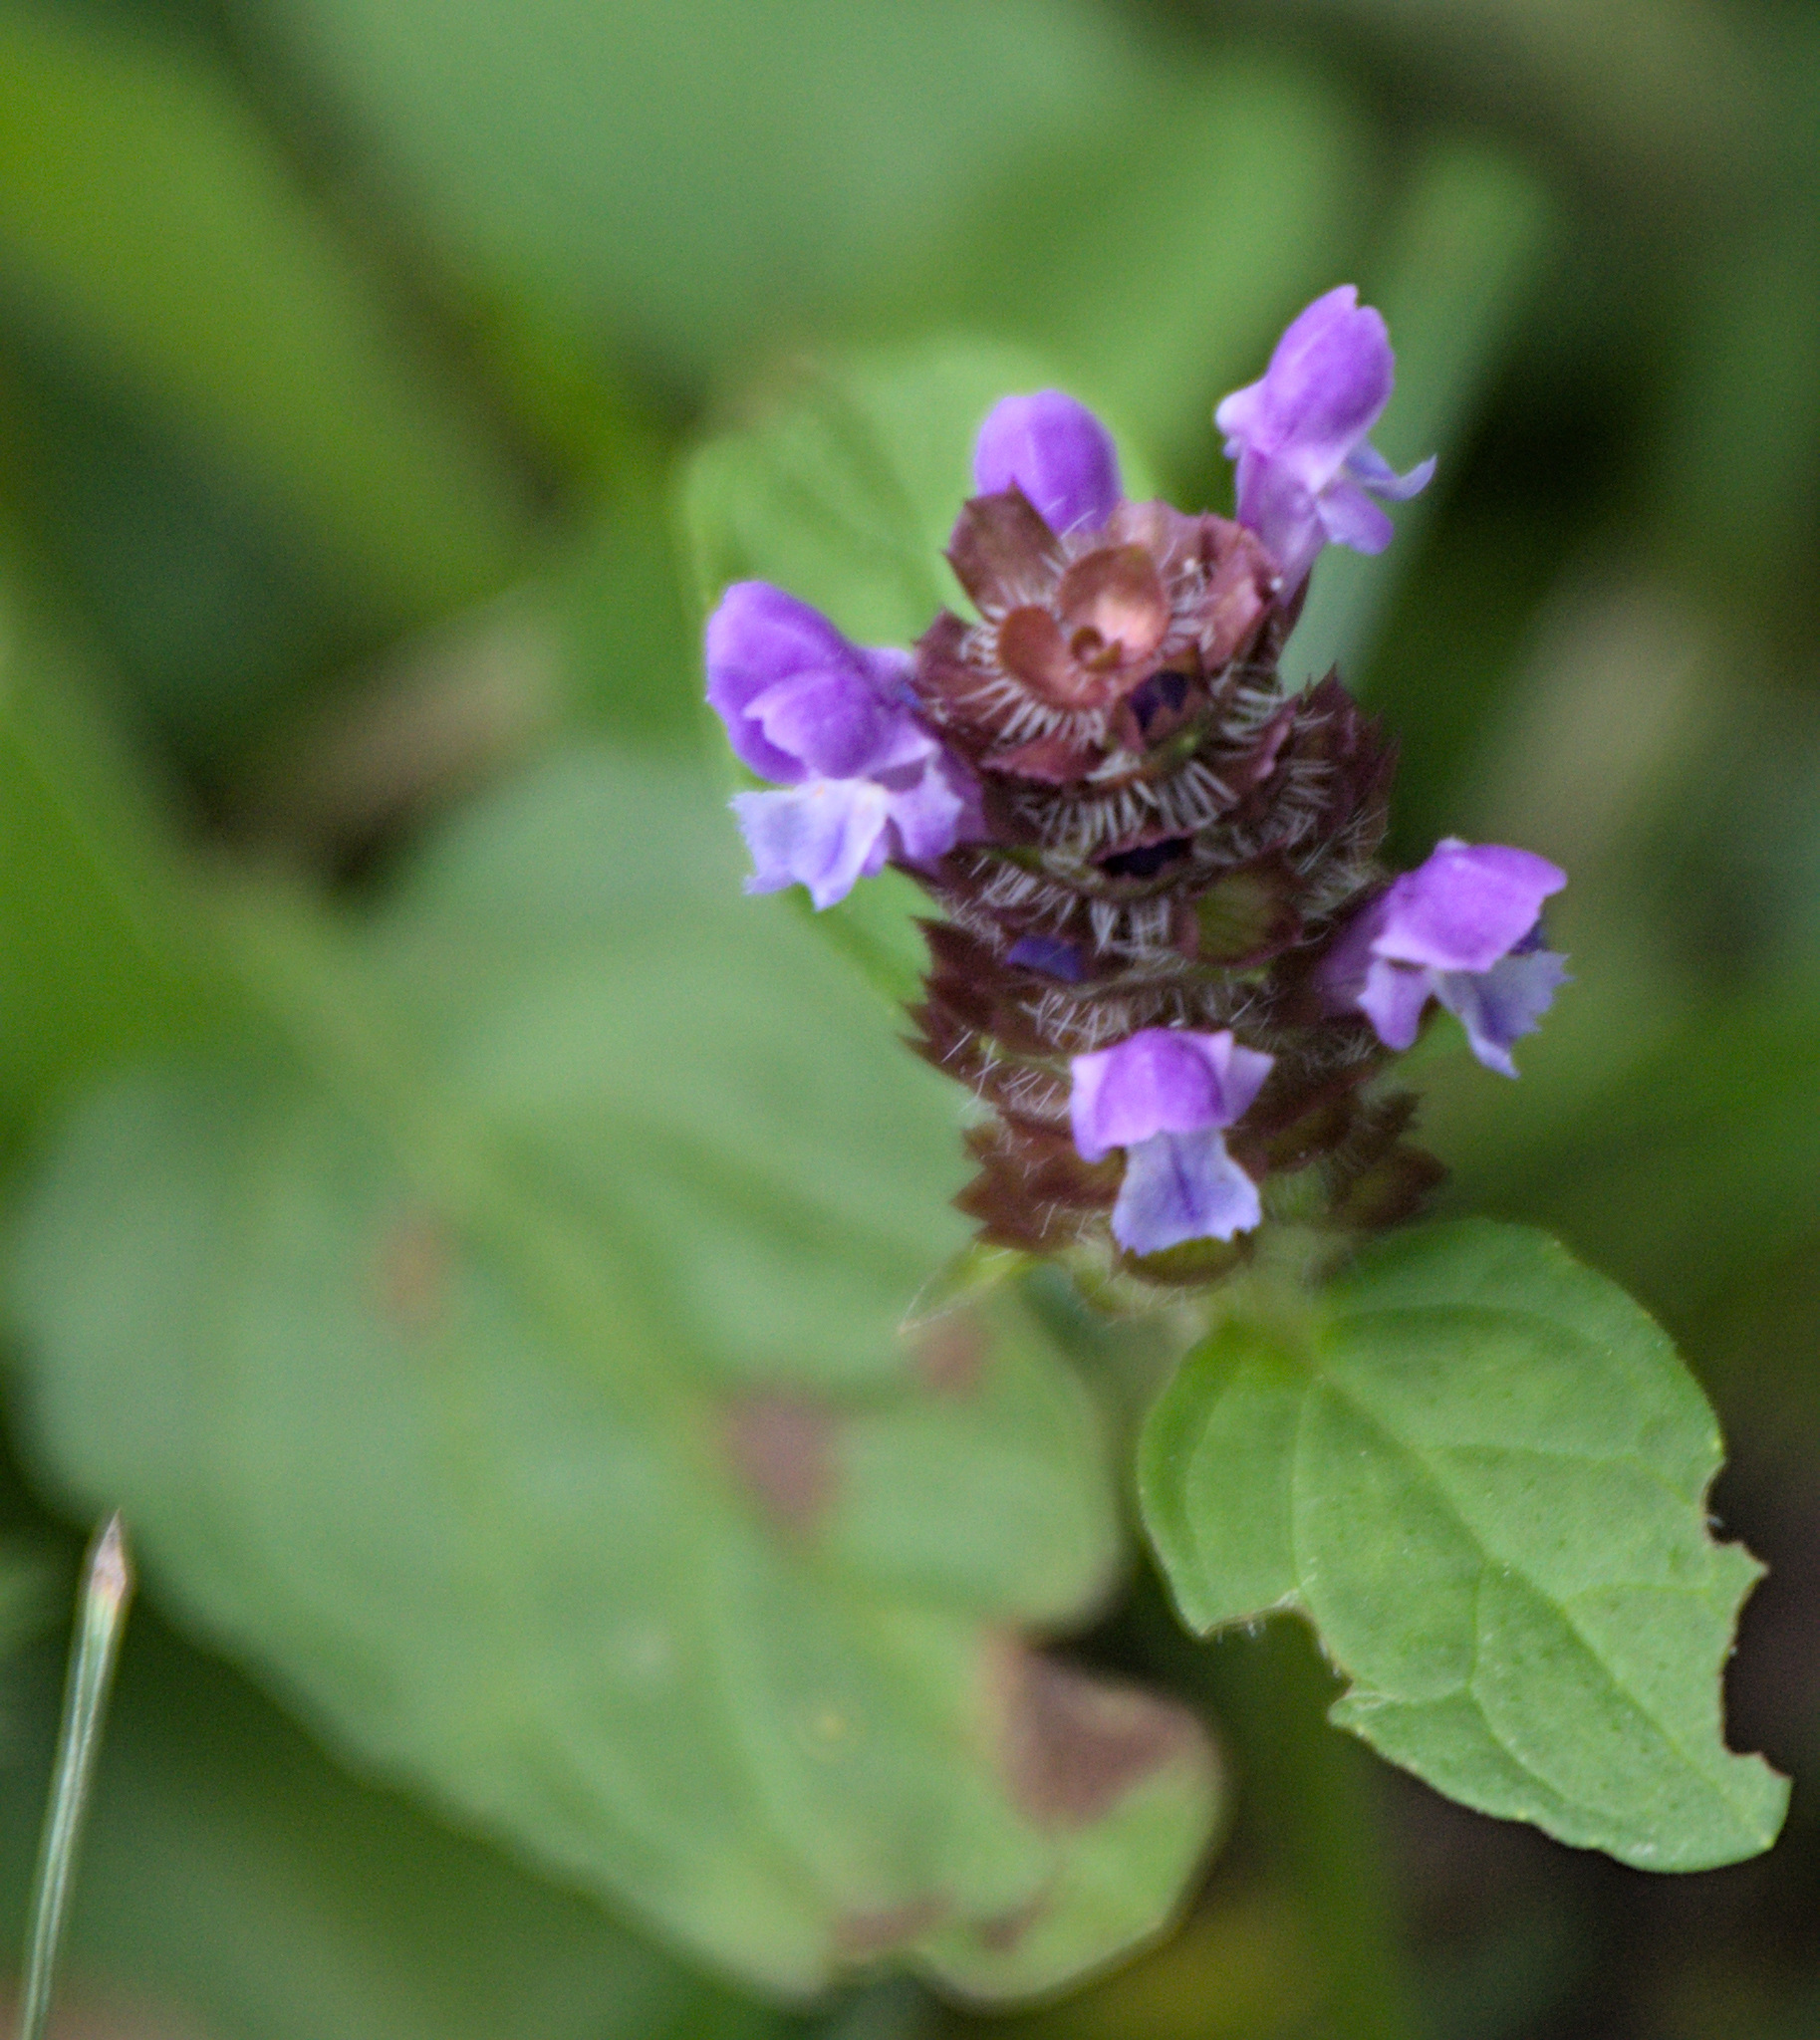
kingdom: Plantae
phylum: Tracheophyta
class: Magnoliopsida
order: Lamiales
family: Lamiaceae
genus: Prunella
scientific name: Prunella vulgaris
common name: Heal-all
